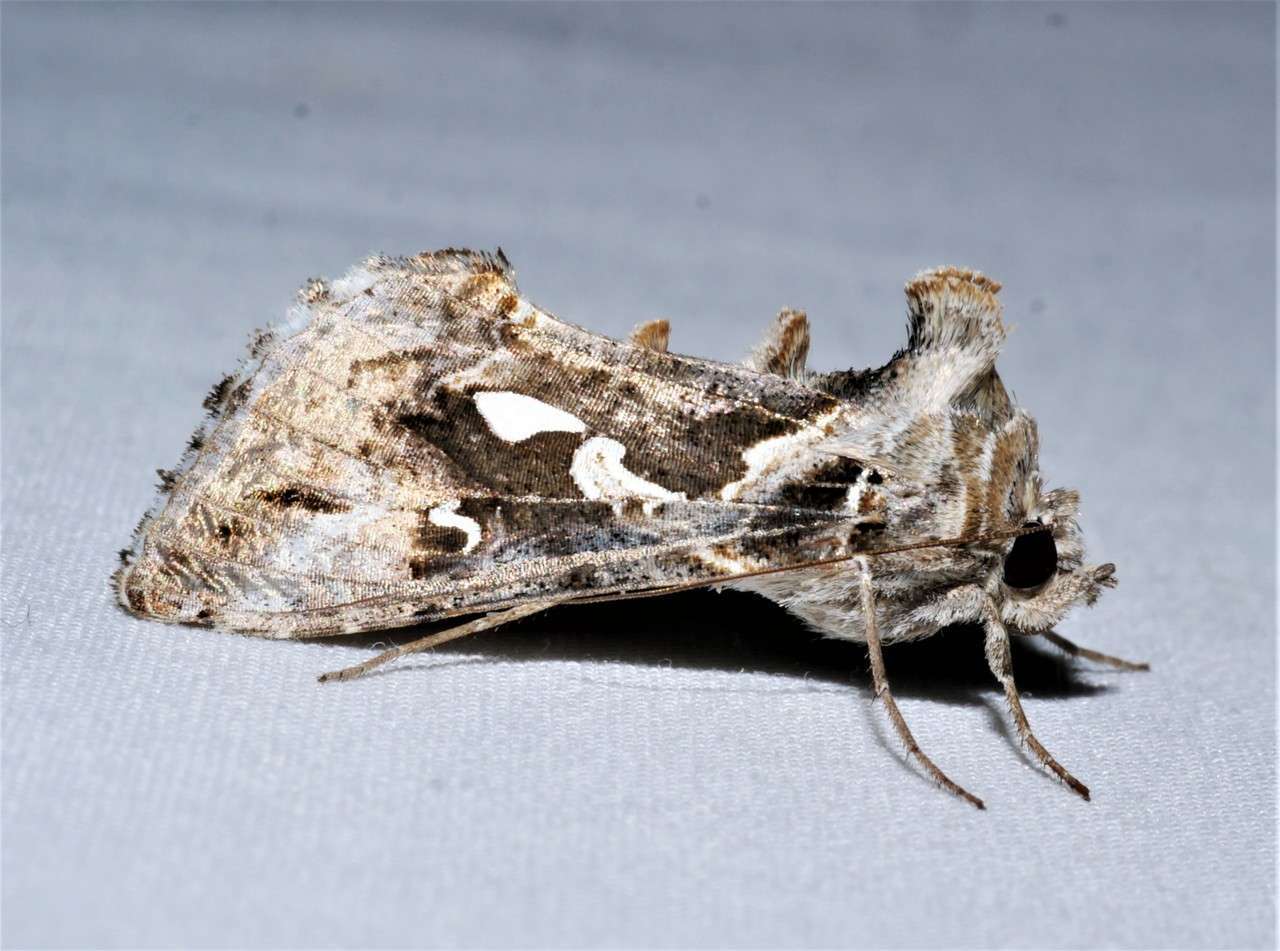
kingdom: Animalia
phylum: Arthropoda
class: Insecta
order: Lepidoptera
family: Noctuidae
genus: Chrysodeixis
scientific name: Chrysodeixis argentifera
